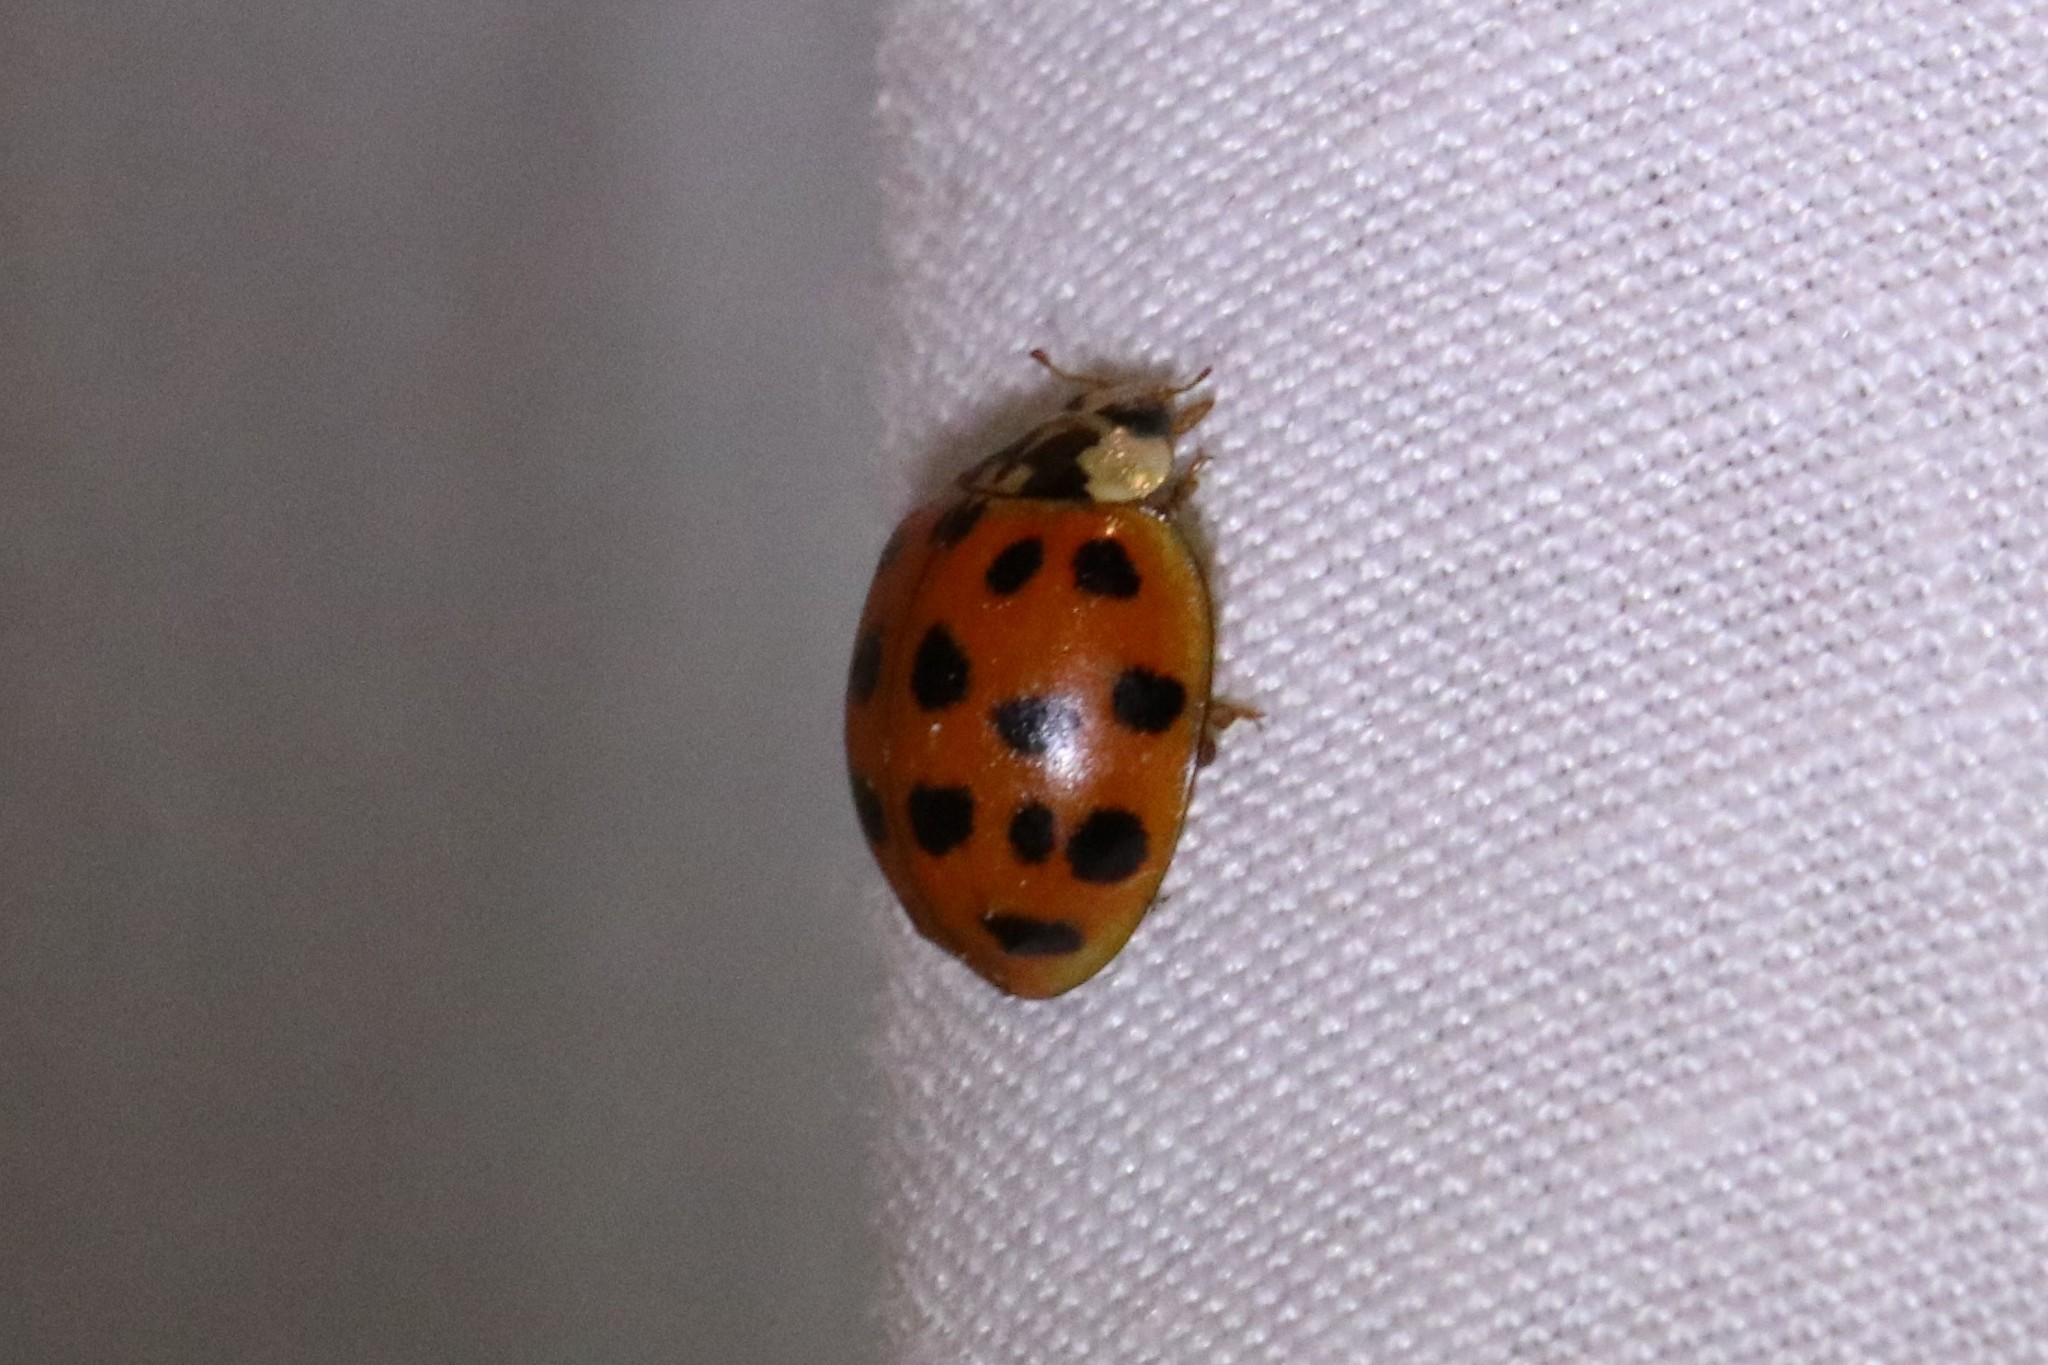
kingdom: Animalia
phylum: Arthropoda
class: Insecta
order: Coleoptera
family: Coccinellidae
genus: Harmonia
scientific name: Harmonia axyridis
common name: Harlequin ladybird
